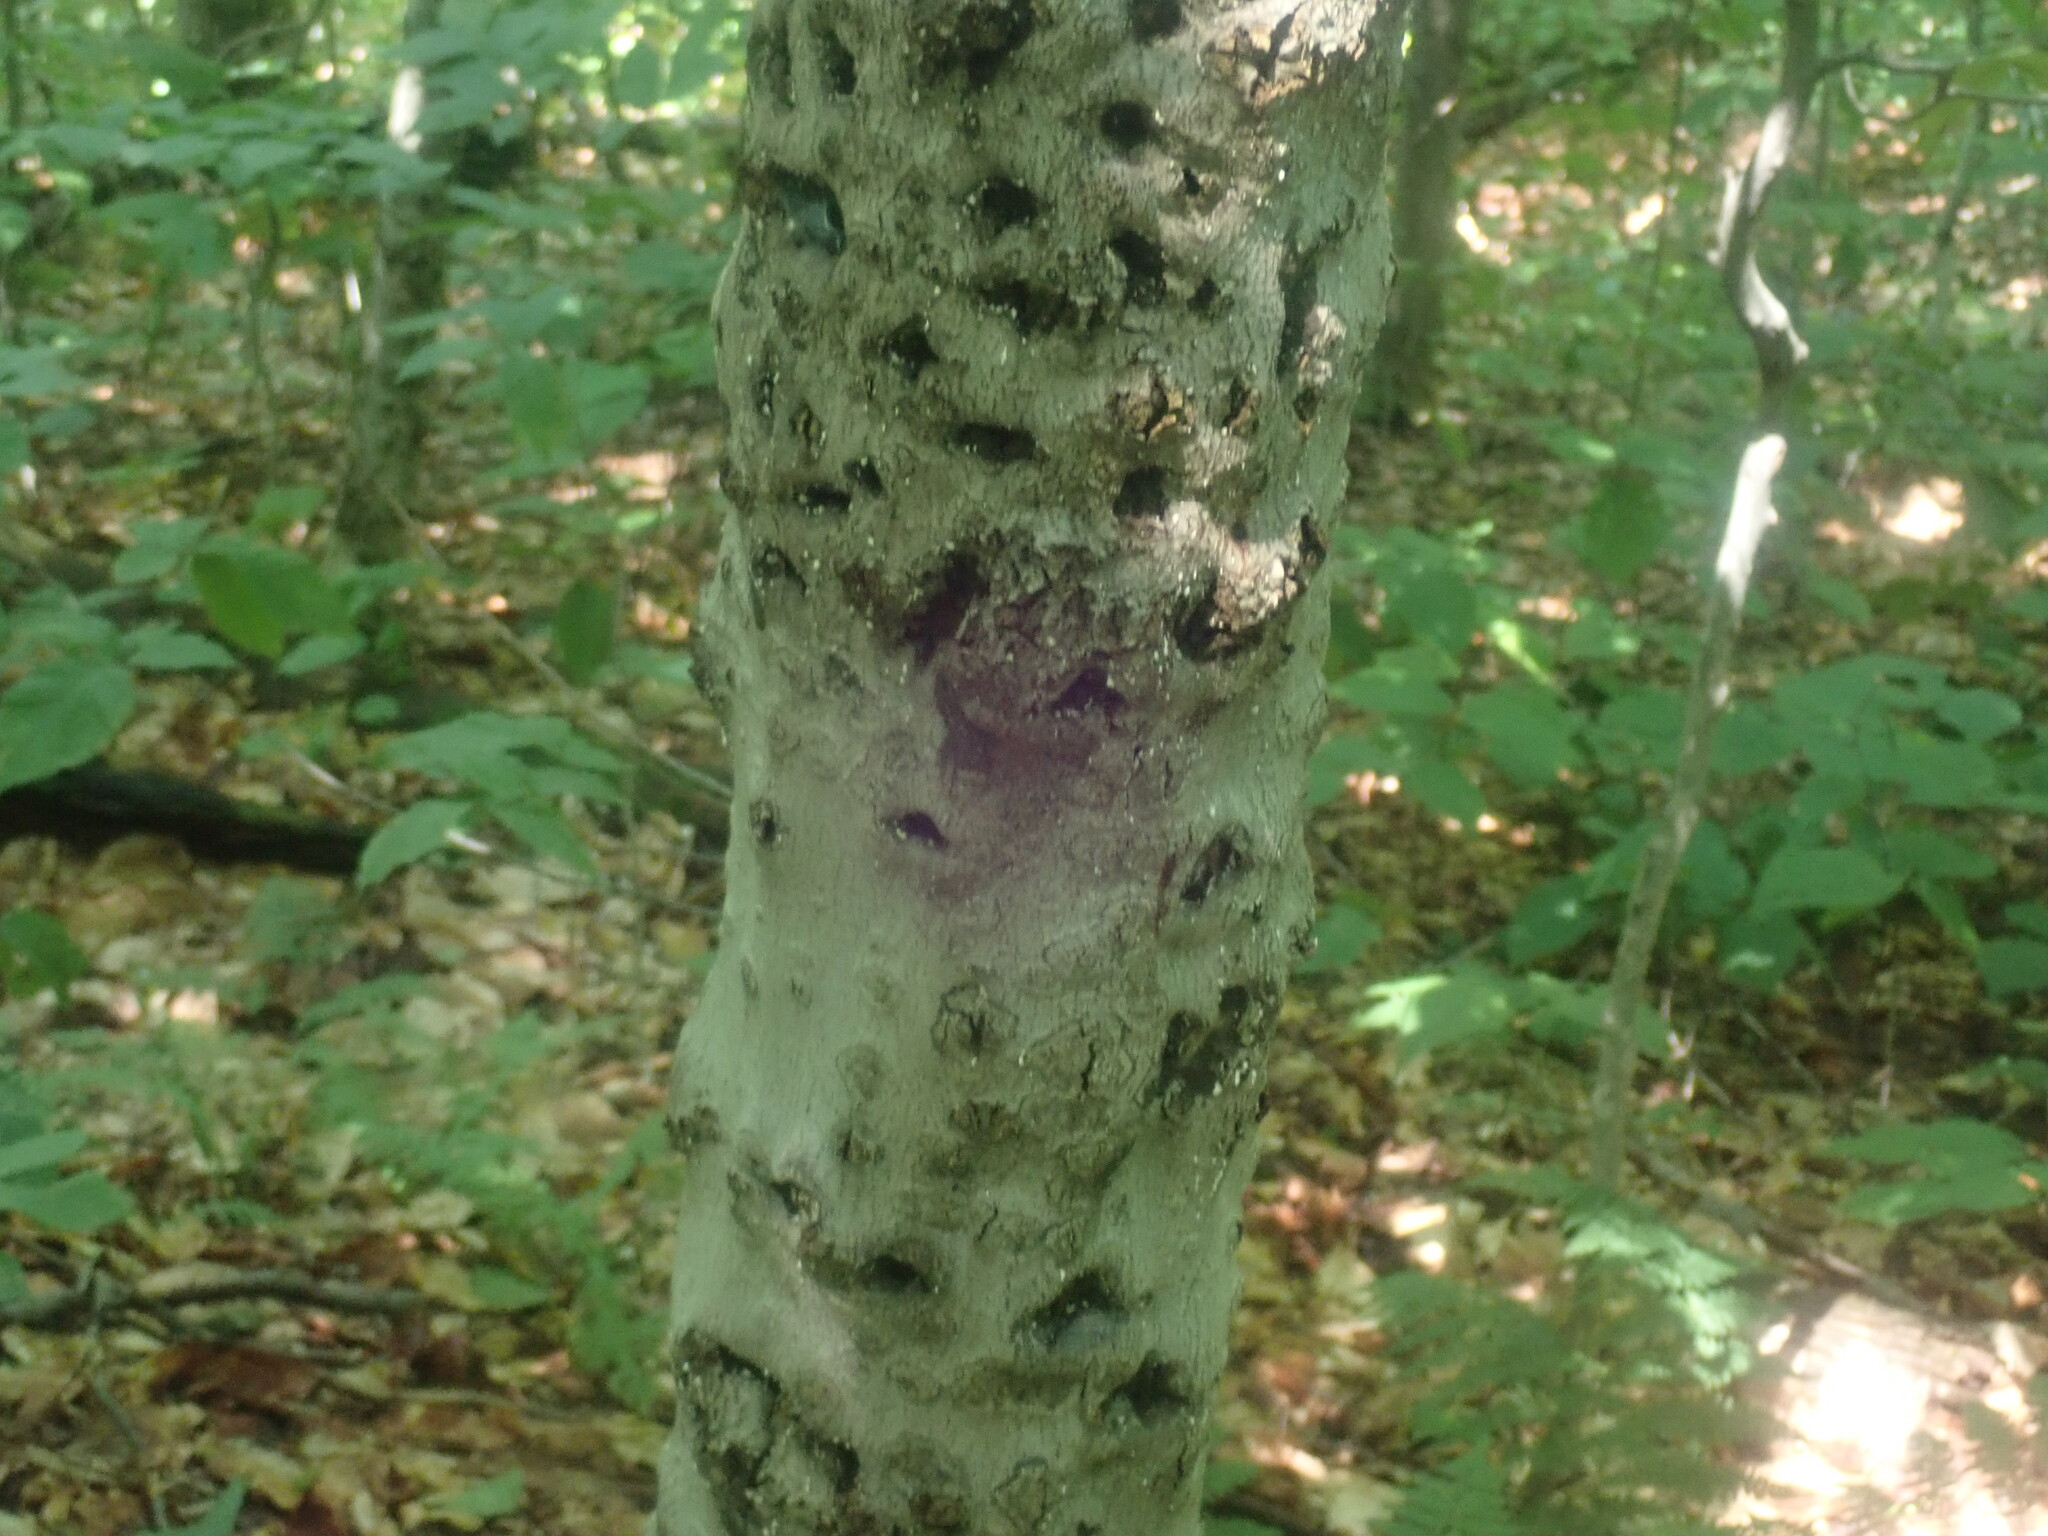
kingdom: Fungi
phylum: Ascomycota
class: Sordariomycetes
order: Hypocreales
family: Nectriaceae
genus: Neonectria
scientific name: Neonectria faginata
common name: Beech bark canker
